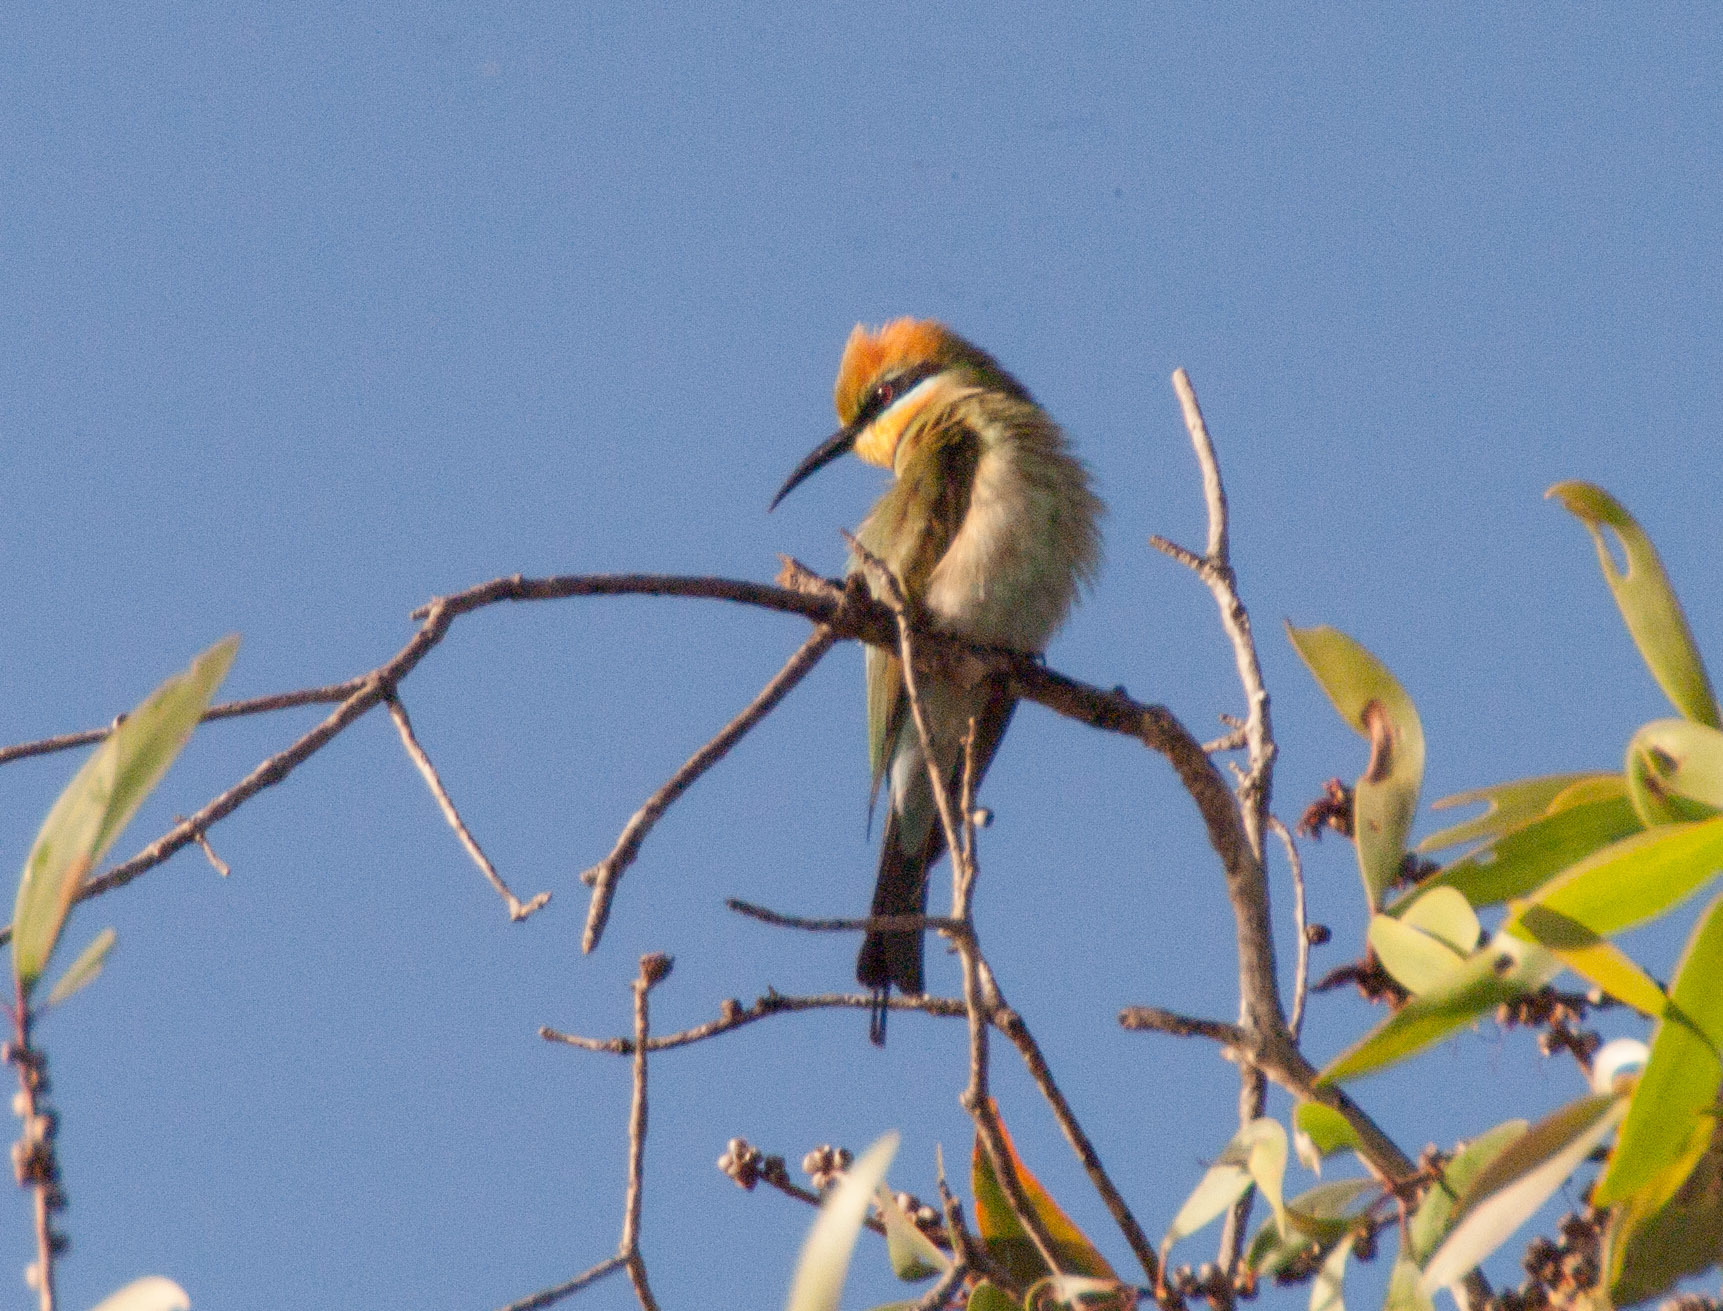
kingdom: Animalia
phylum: Chordata
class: Aves
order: Coraciiformes
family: Meropidae
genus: Merops
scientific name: Merops ornatus
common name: Rainbow bee-eater
